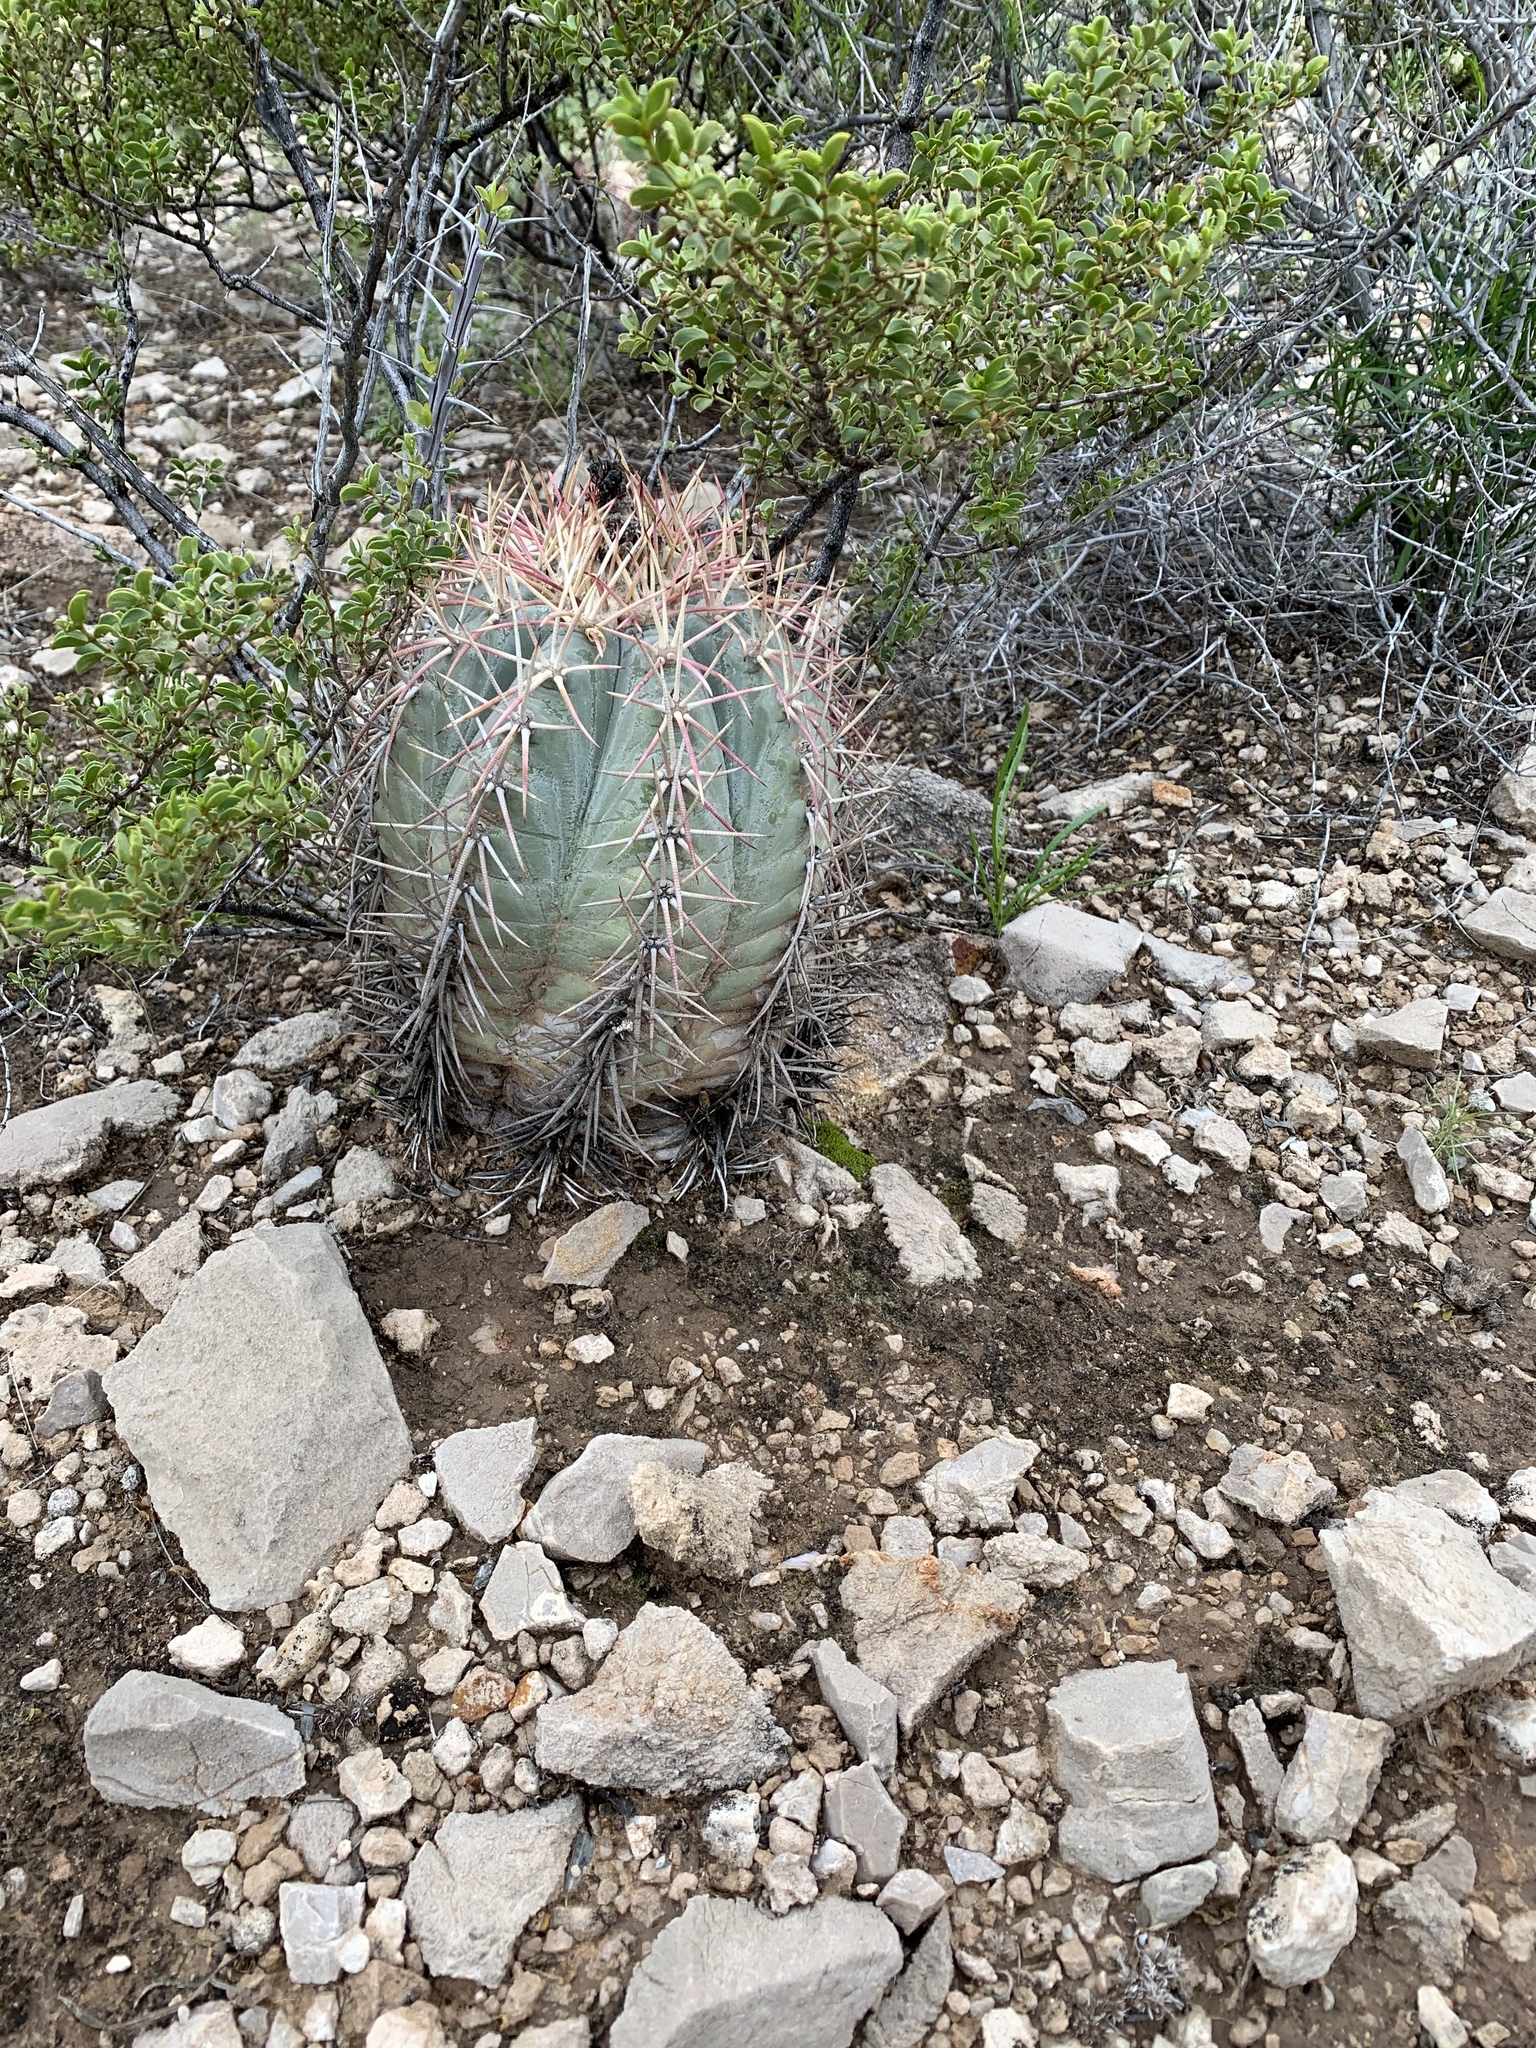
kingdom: Plantae
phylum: Tracheophyta
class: Magnoliopsida
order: Caryophyllales
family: Cactaceae
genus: Echinocactus
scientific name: Echinocactus horizonthalonius
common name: Devilshead
